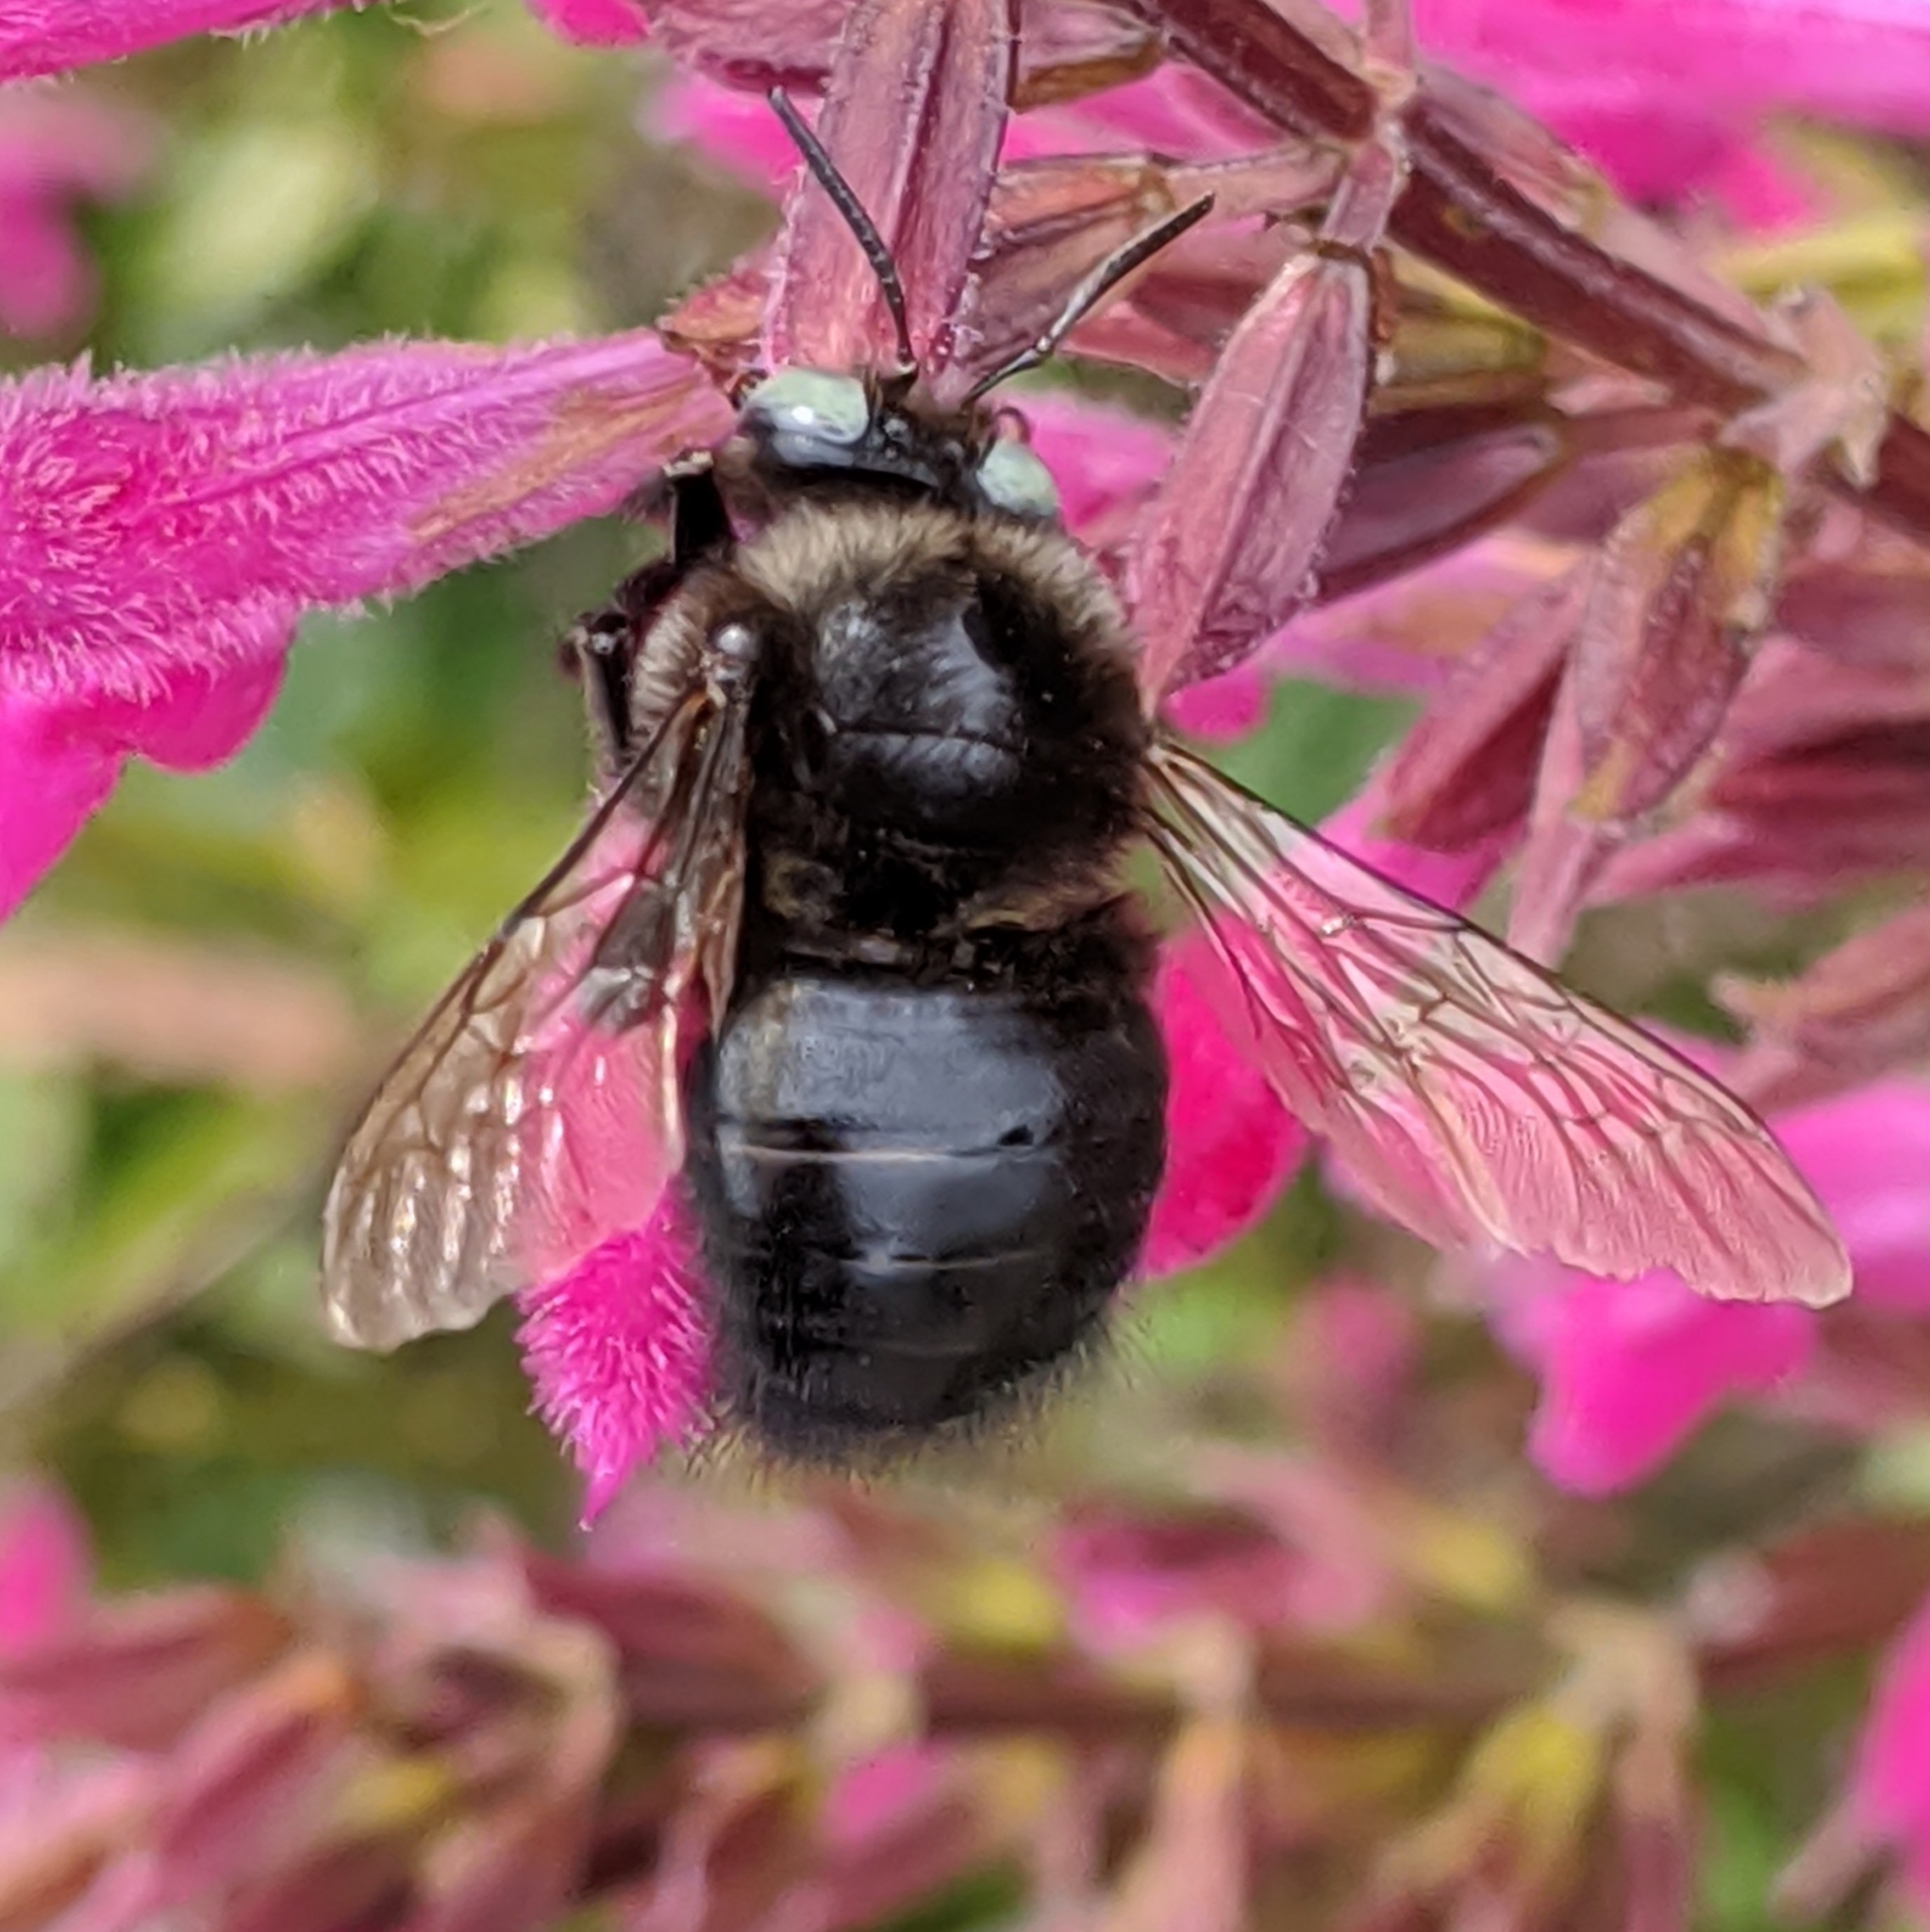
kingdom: Animalia
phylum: Arthropoda
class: Insecta
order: Hymenoptera
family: Apidae
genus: Xylocopa
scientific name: Xylocopa tabaniformis
